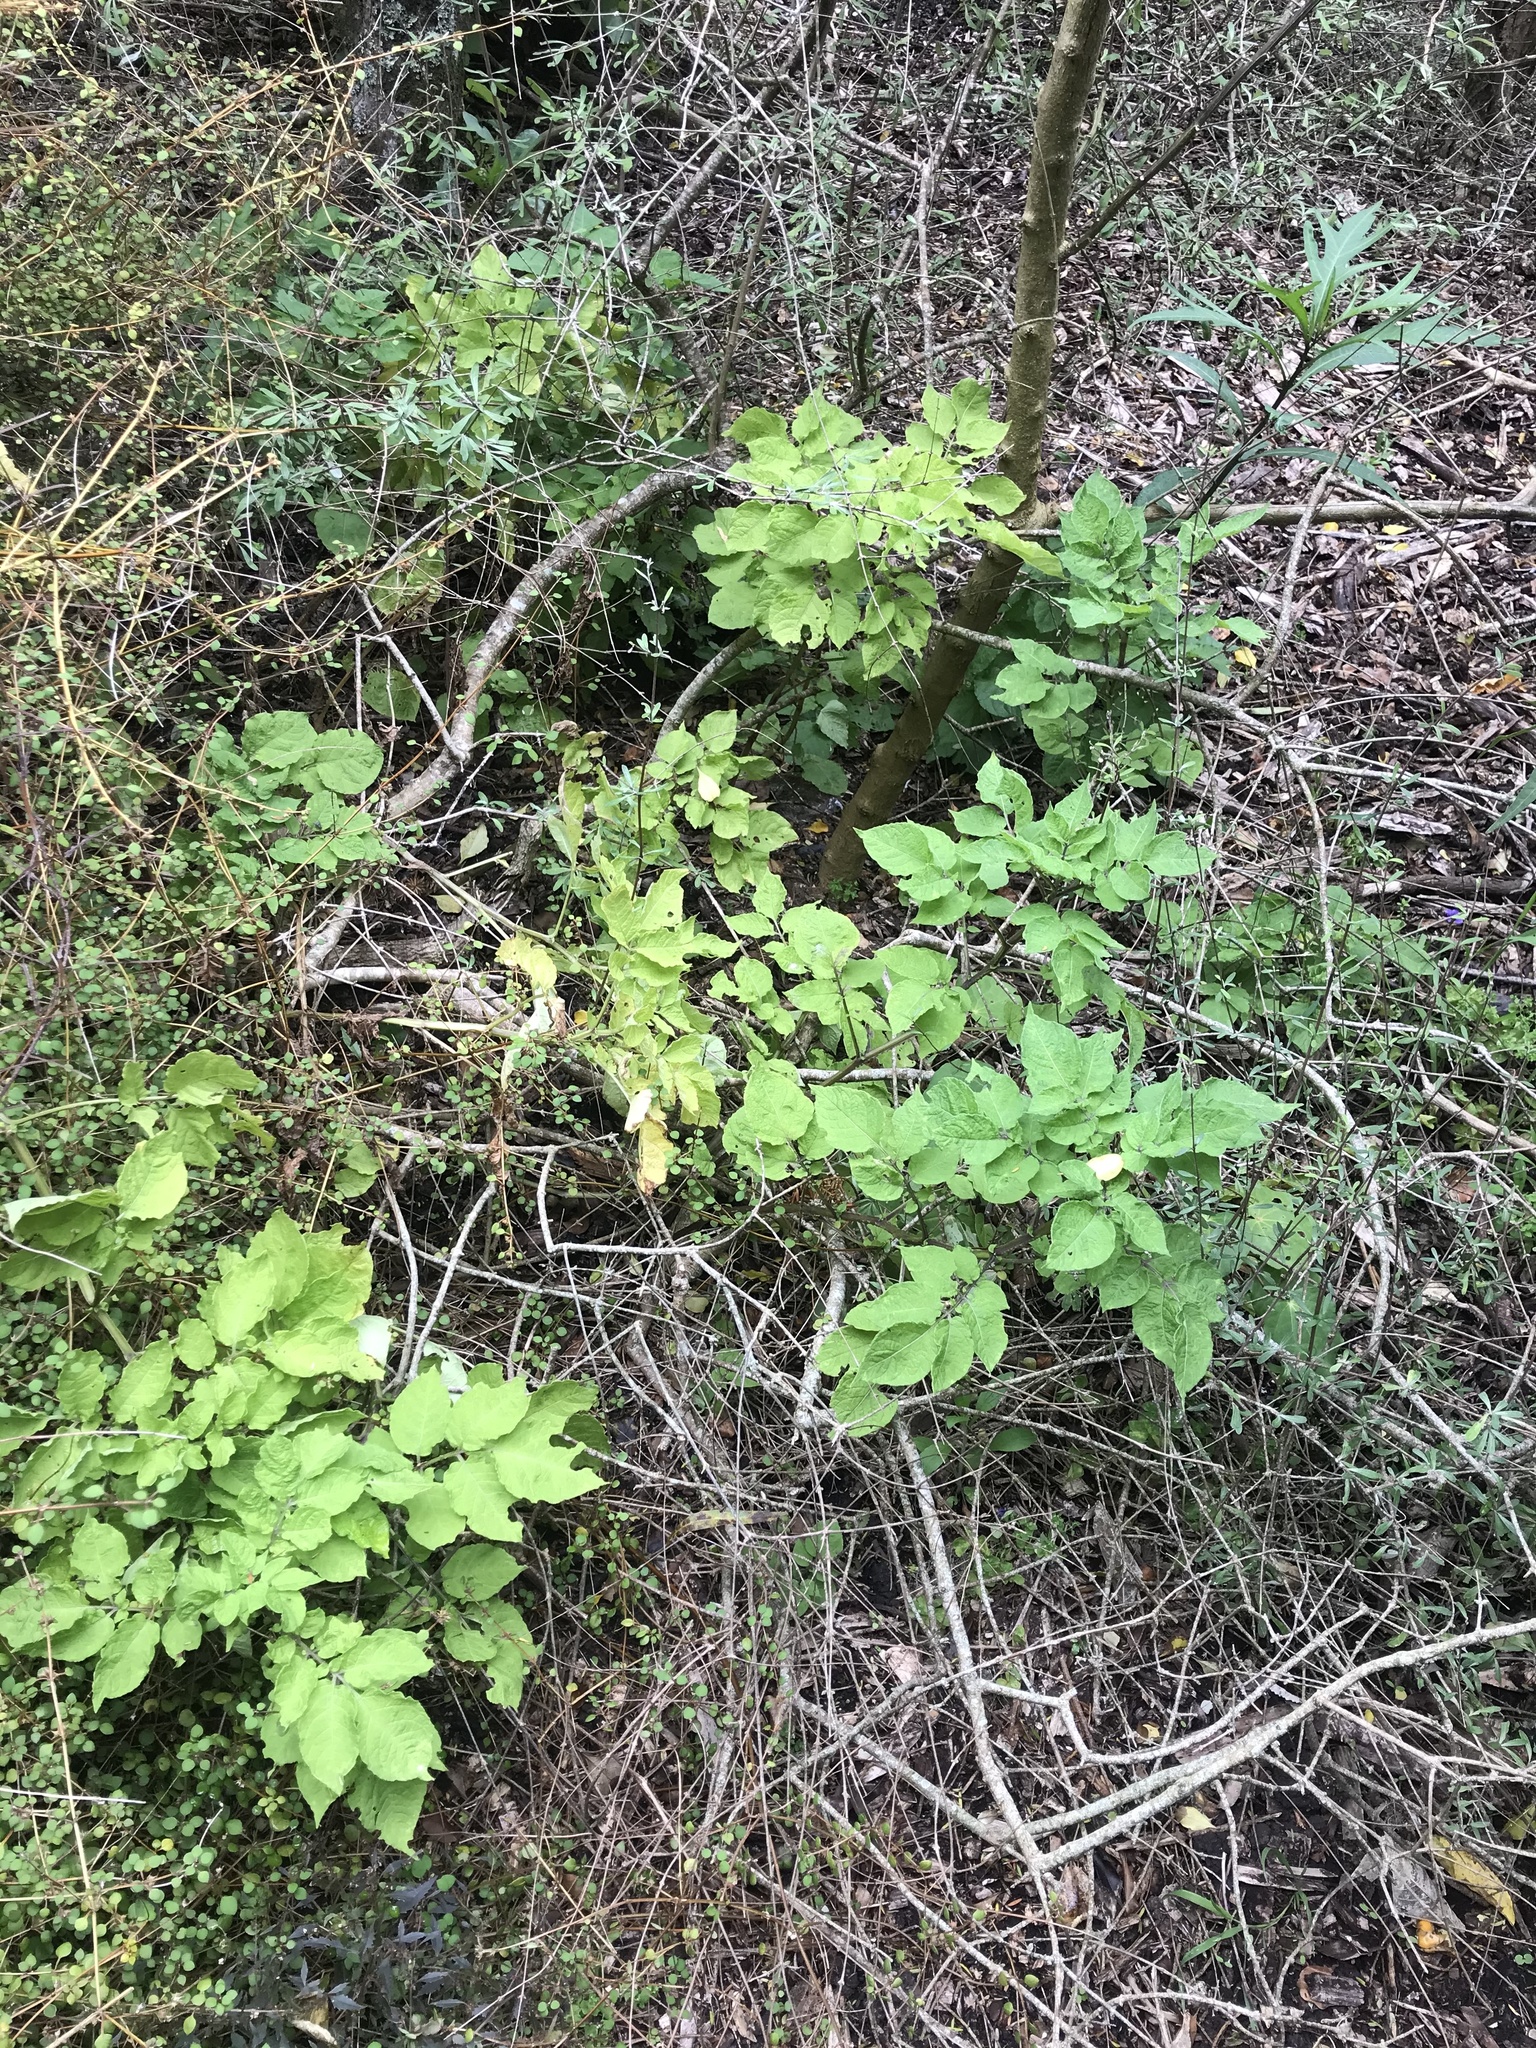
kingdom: Plantae
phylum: Tracheophyta
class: Magnoliopsida
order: Solanales
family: Solanaceae
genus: Solanum
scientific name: Solanum tuberosum
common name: Potato
